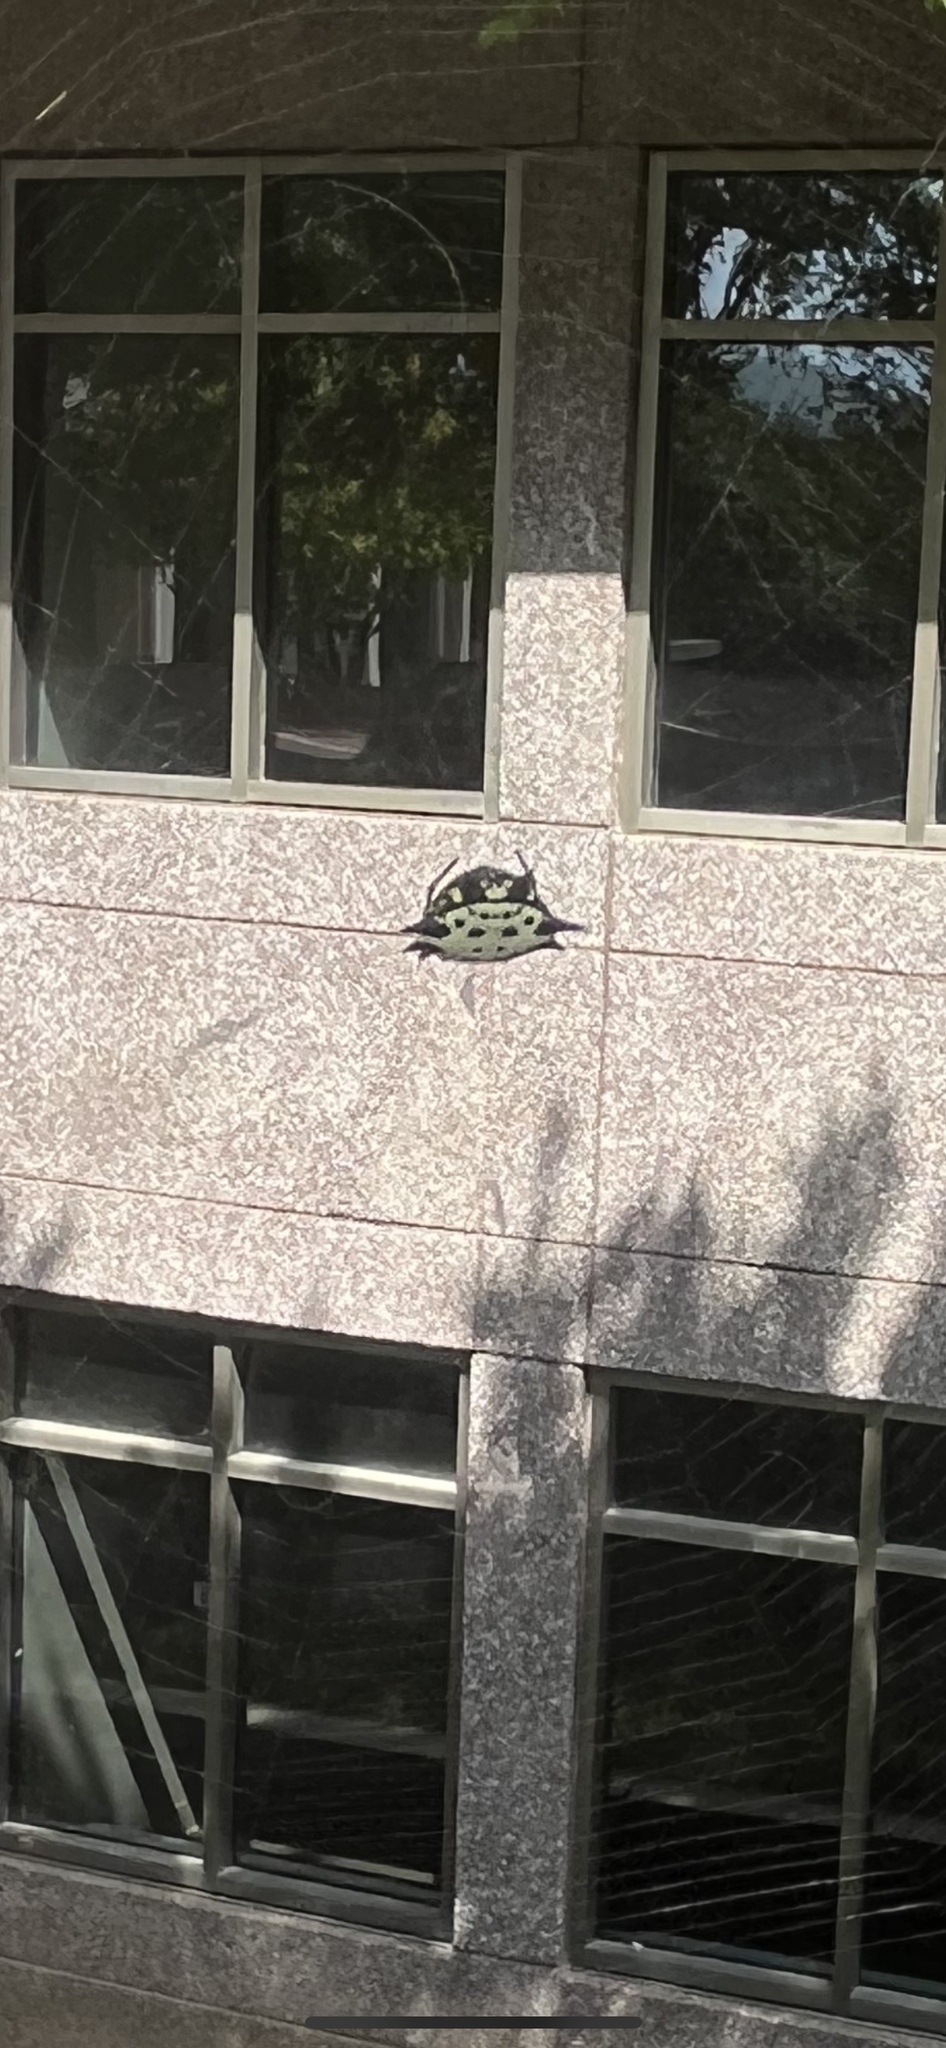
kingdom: Animalia
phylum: Arthropoda
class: Arachnida
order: Araneae
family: Araneidae
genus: Gasteracantha
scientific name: Gasteracantha cancriformis
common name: Orb weavers
